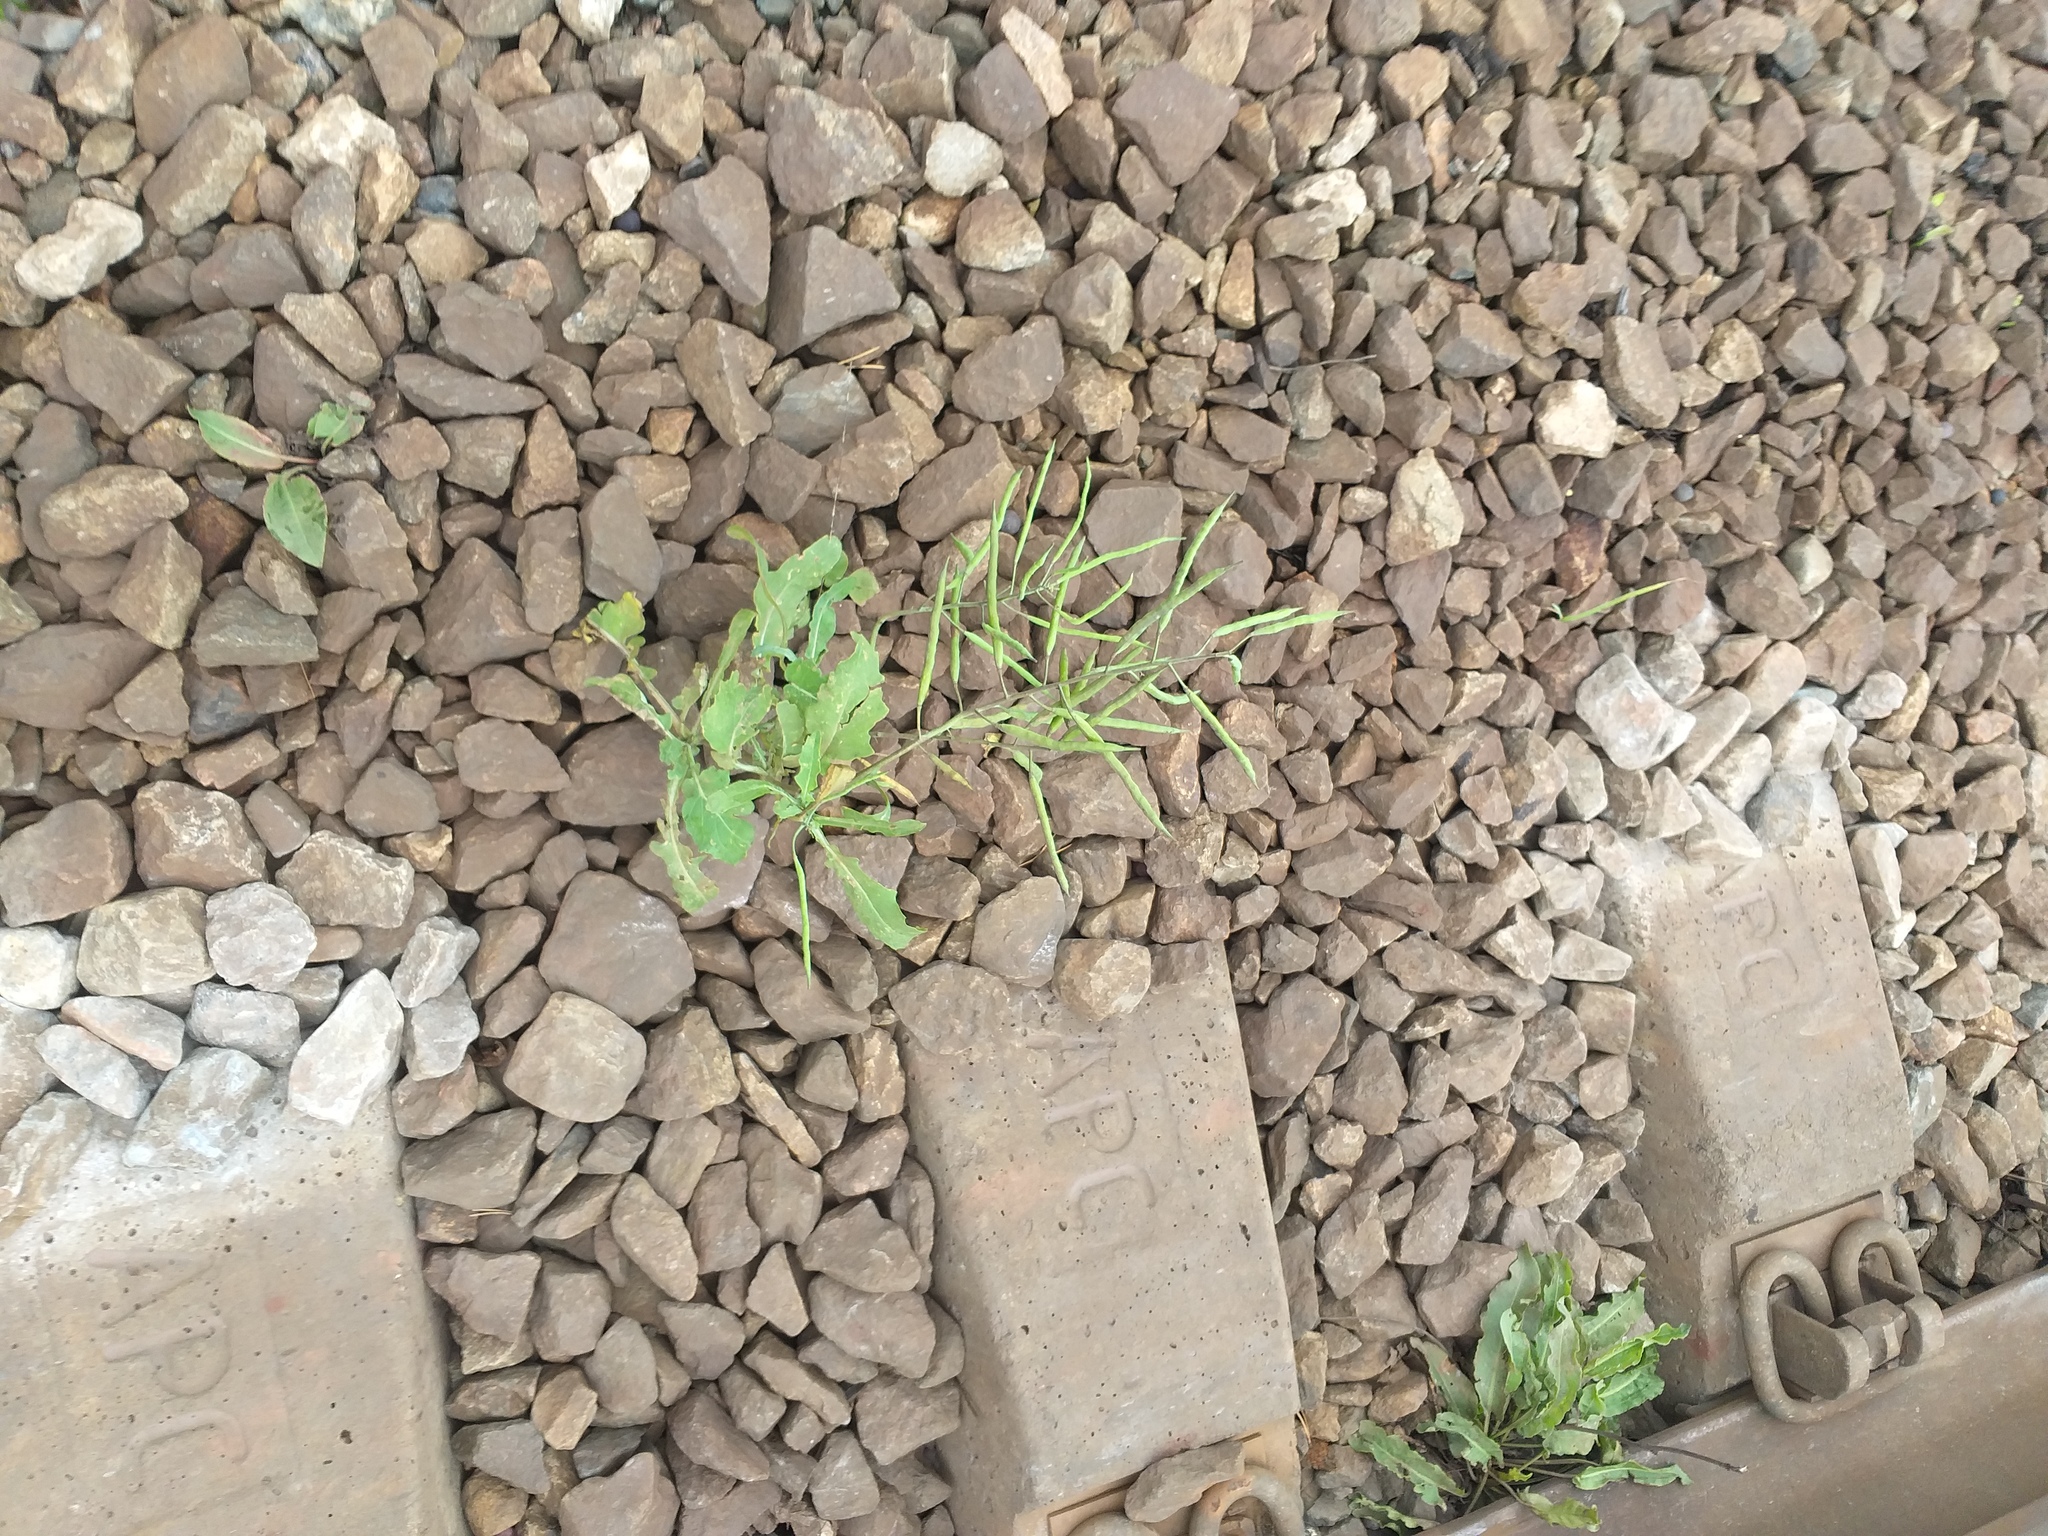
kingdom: Plantae
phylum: Tracheophyta
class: Magnoliopsida
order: Brassicales
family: Brassicaceae
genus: Brassica
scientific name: Brassica napus
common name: Rape
